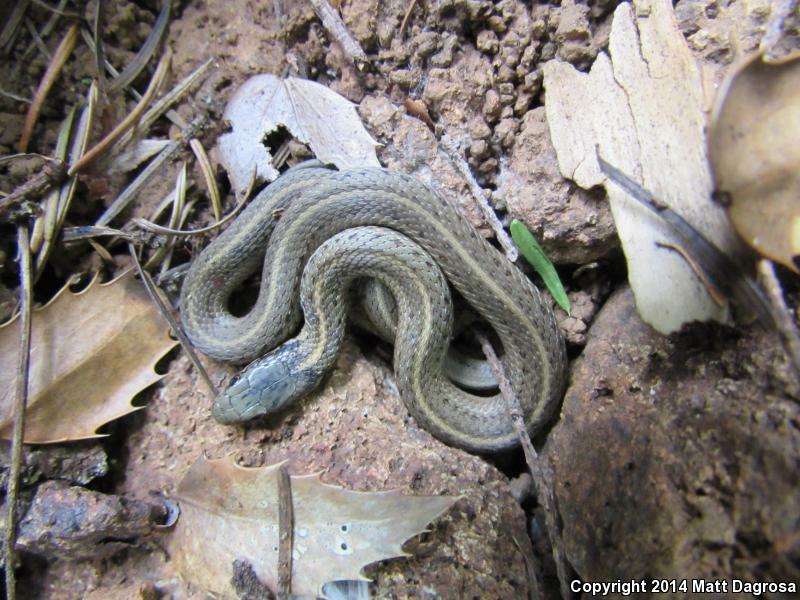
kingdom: Animalia
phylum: Chordata
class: Squamata
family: Colubridae
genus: Thamnophis
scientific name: Thamnophis ordinoides
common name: Northwestern garter snake
